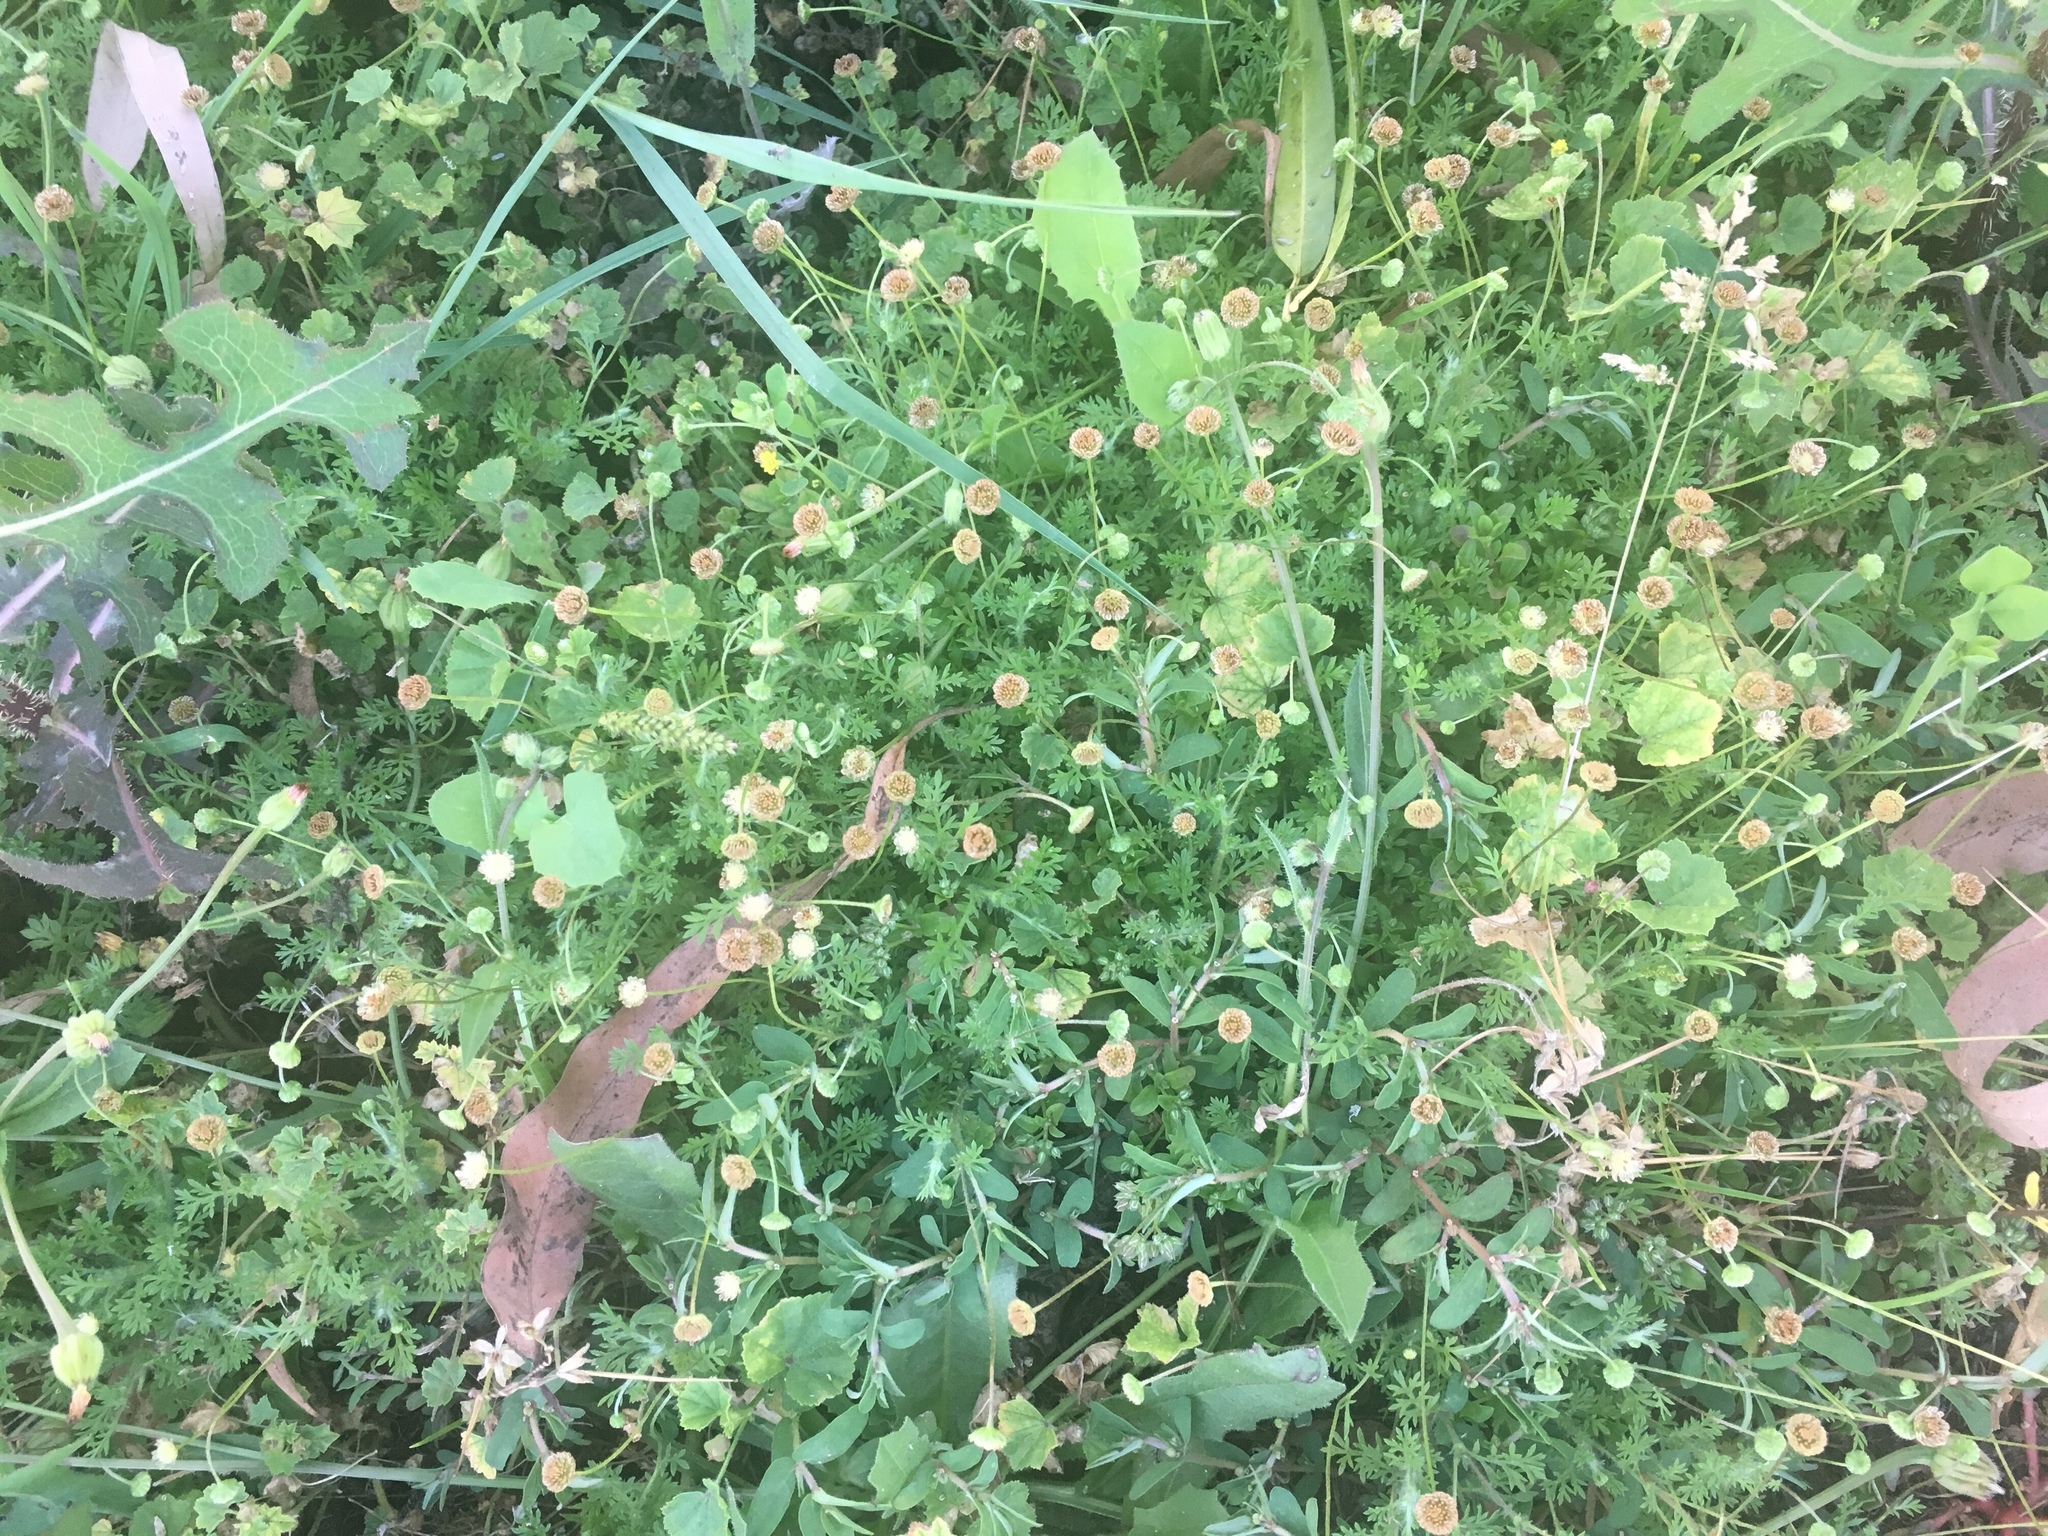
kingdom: Plantae
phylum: Tracheophyta
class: Magnoliopsida
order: Asterales
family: Asteraceae
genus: Cotula
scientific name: Cotula australis
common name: Australian waterbuttons
